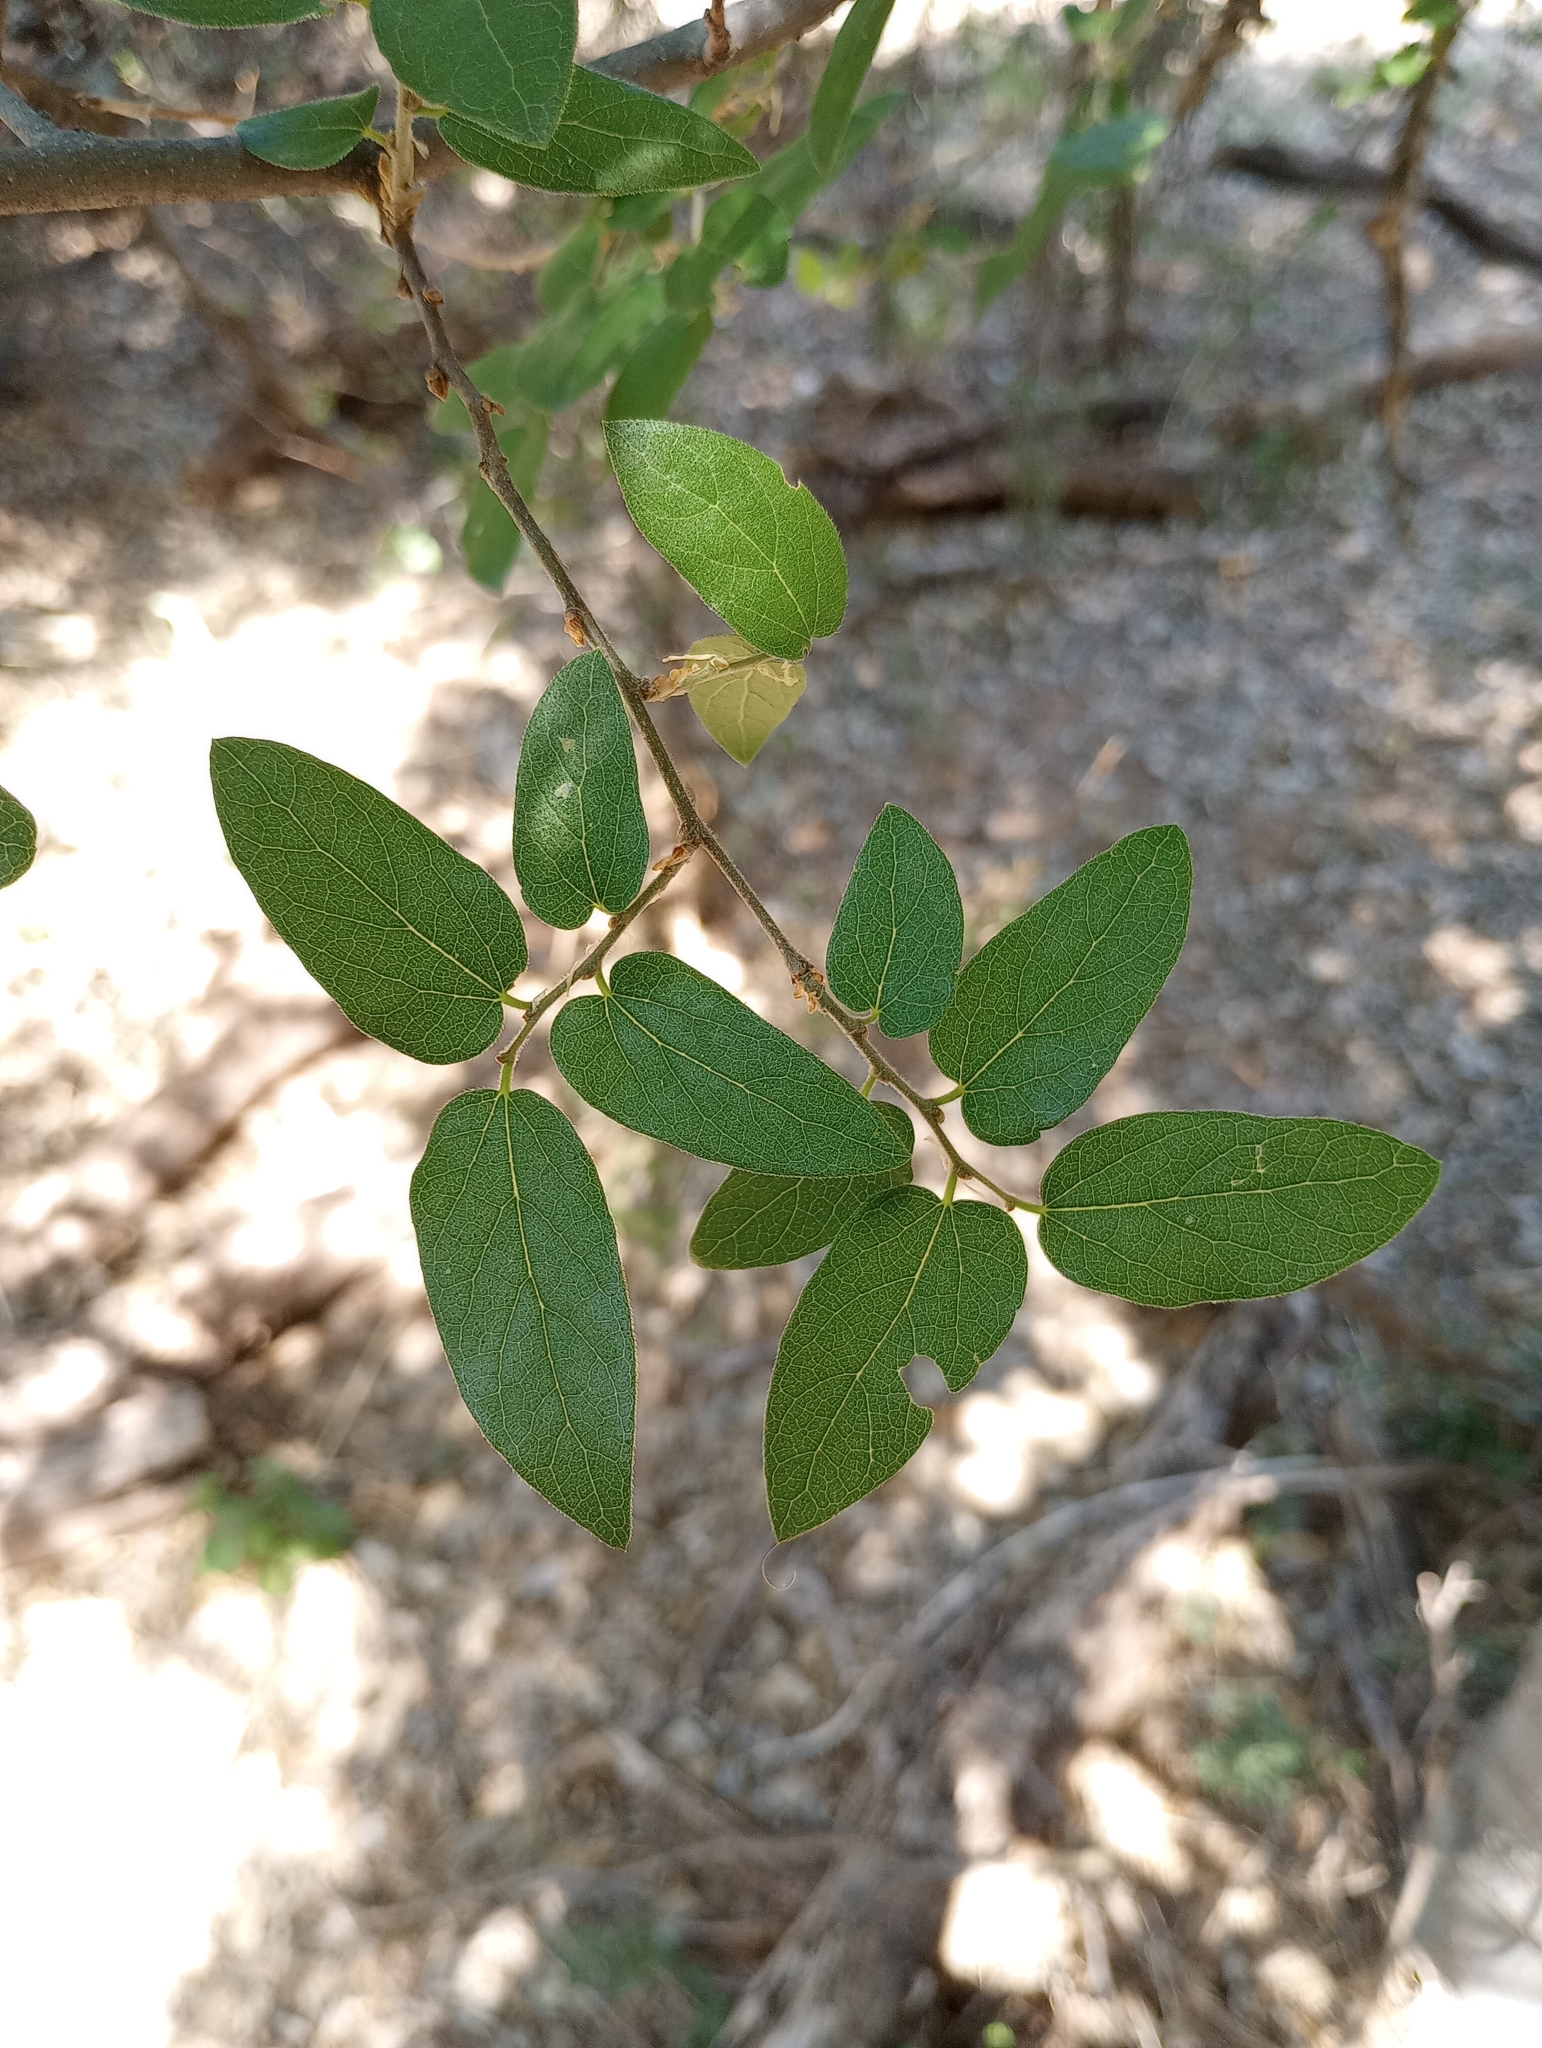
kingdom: Plantae
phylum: Tracheophyta
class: Magnoliopsida
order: Rosales
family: Cannabaceae
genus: Celtis
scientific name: Celtis reticulata
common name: Netleaf hackberry
